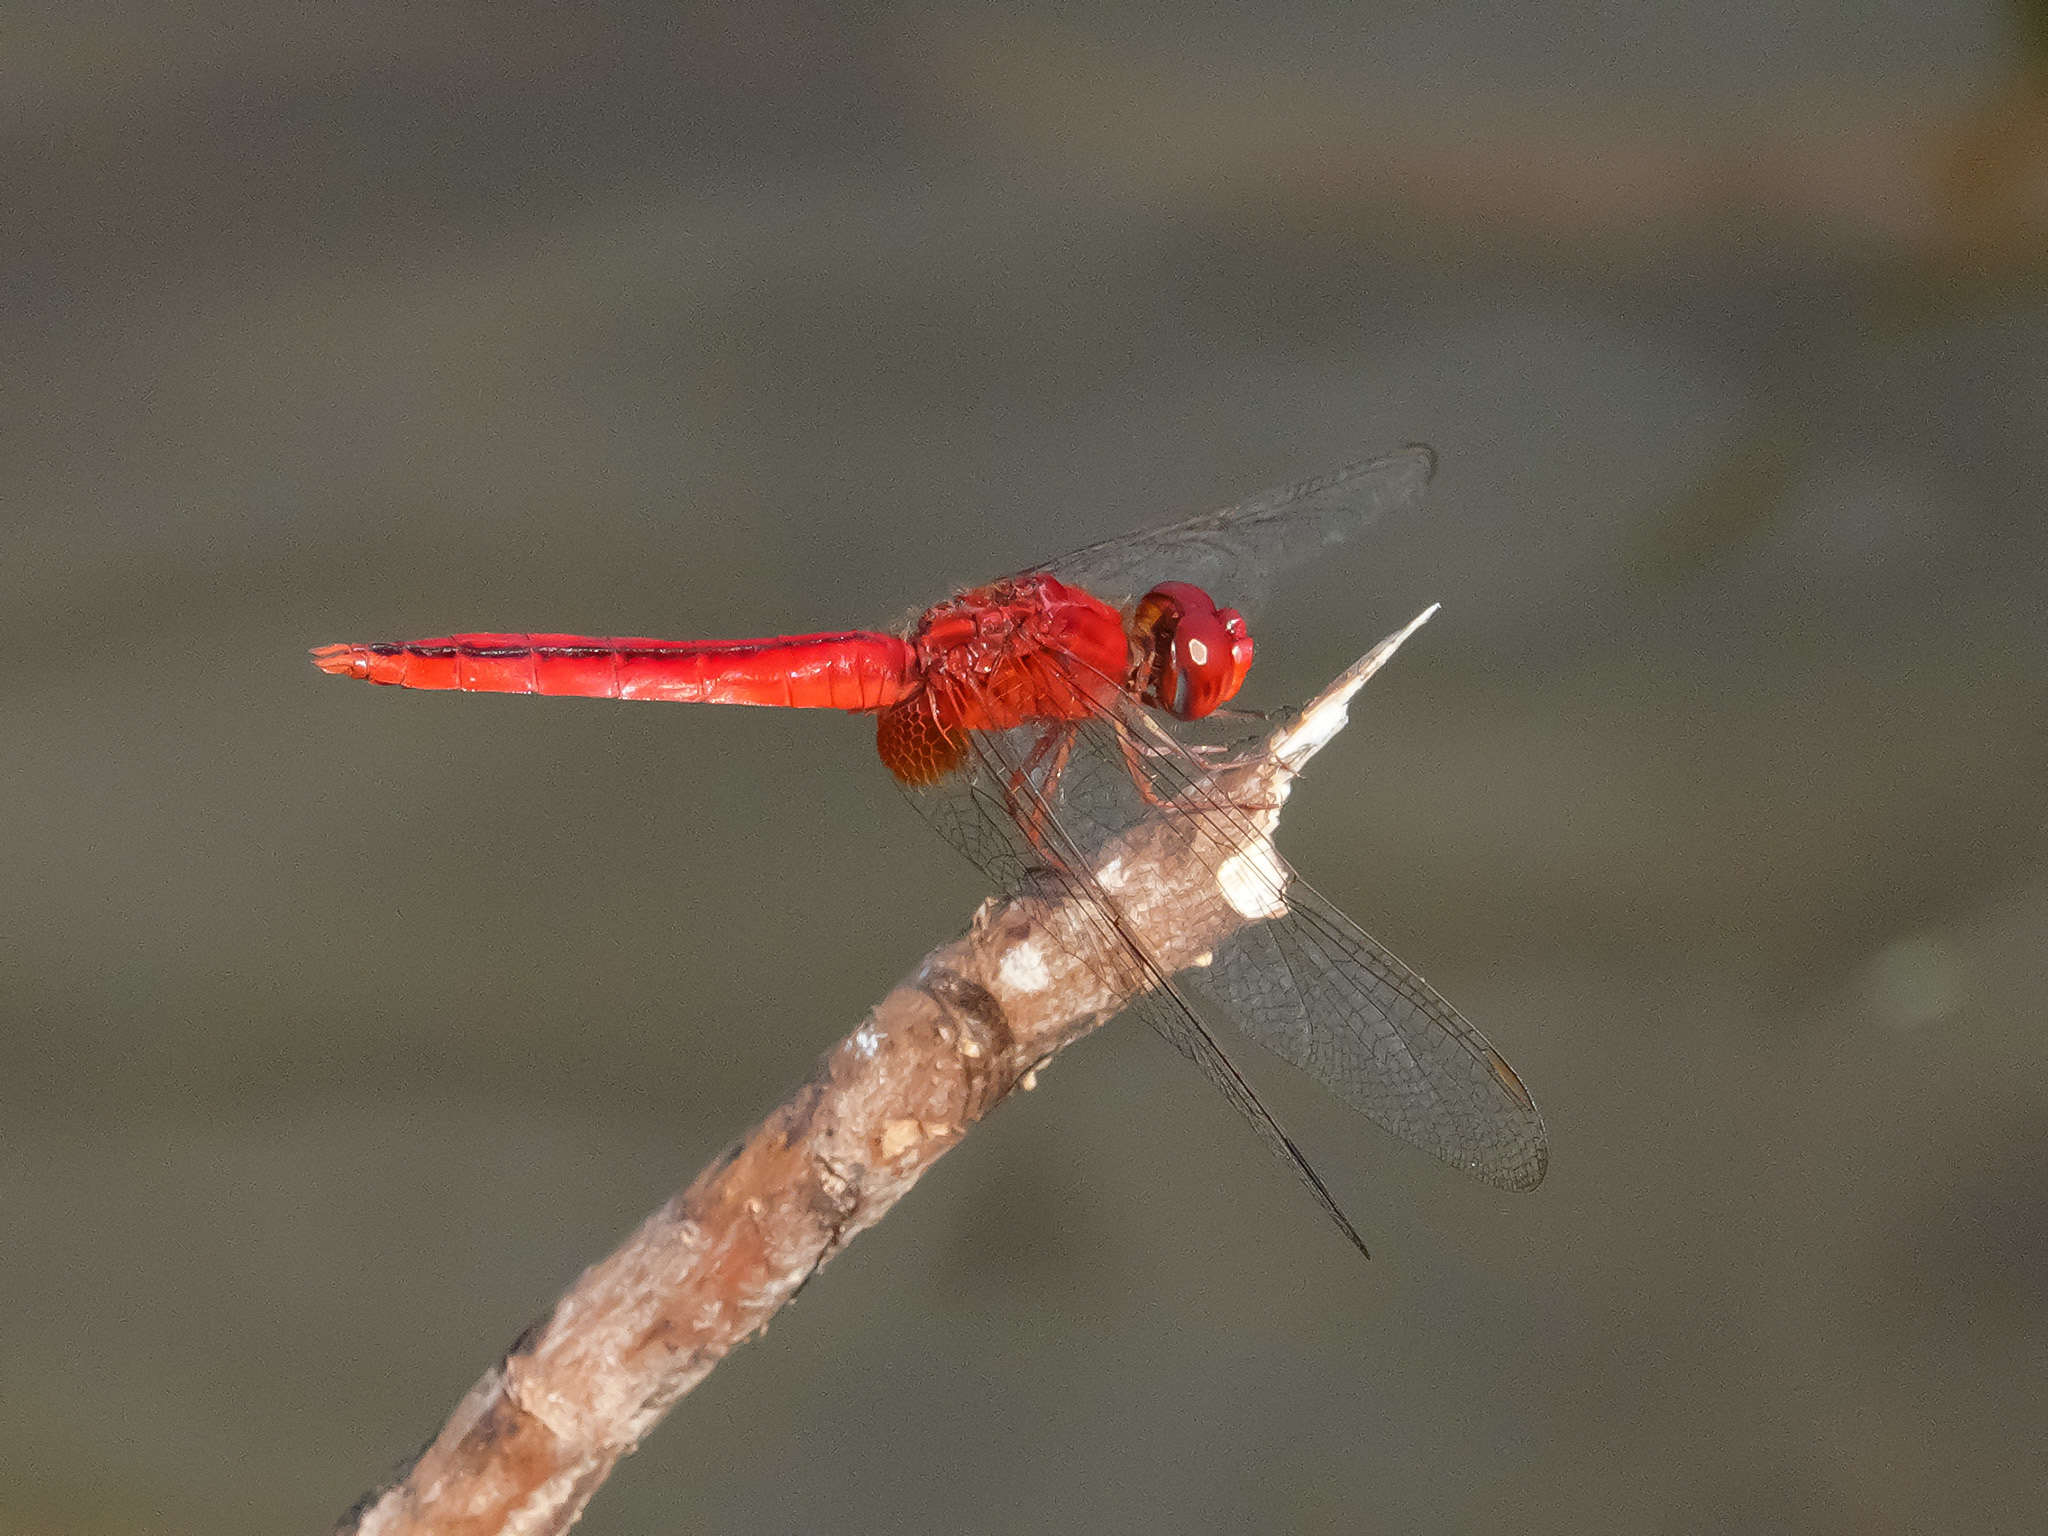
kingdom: Animalia
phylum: Arthropoda
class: Insecta
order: Odonata
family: Libellulidae
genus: Crocothemis
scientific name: Crocothemis servilia
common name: Scarlet skimmer
